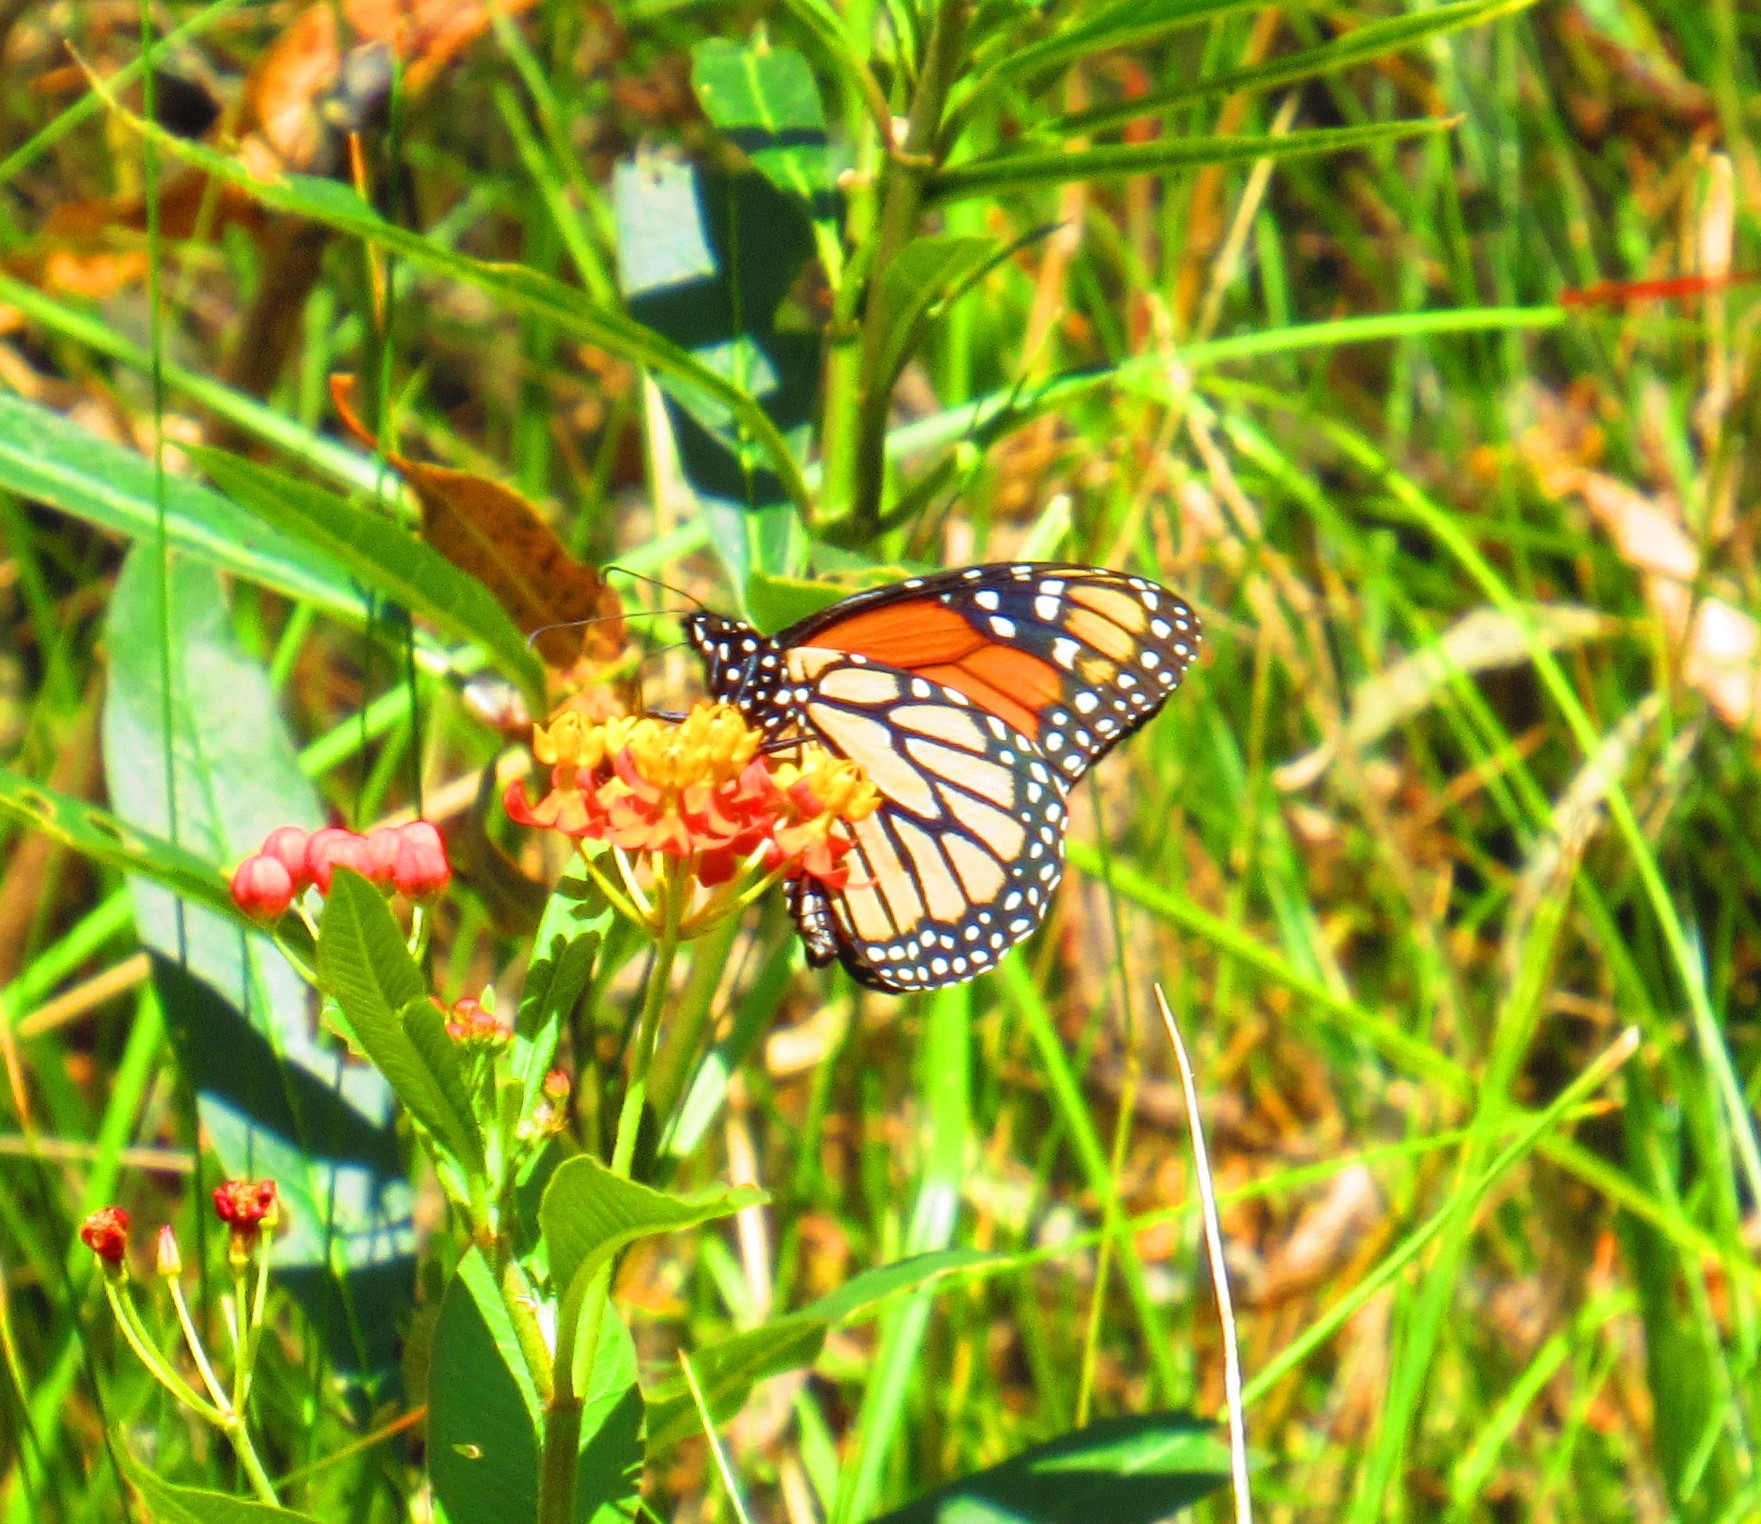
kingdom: Animalia
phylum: Arthropoda
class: Insecta
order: Lepidoptera
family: Nymphalidae
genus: Danaus
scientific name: Danaus plexippus
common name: Monarch
